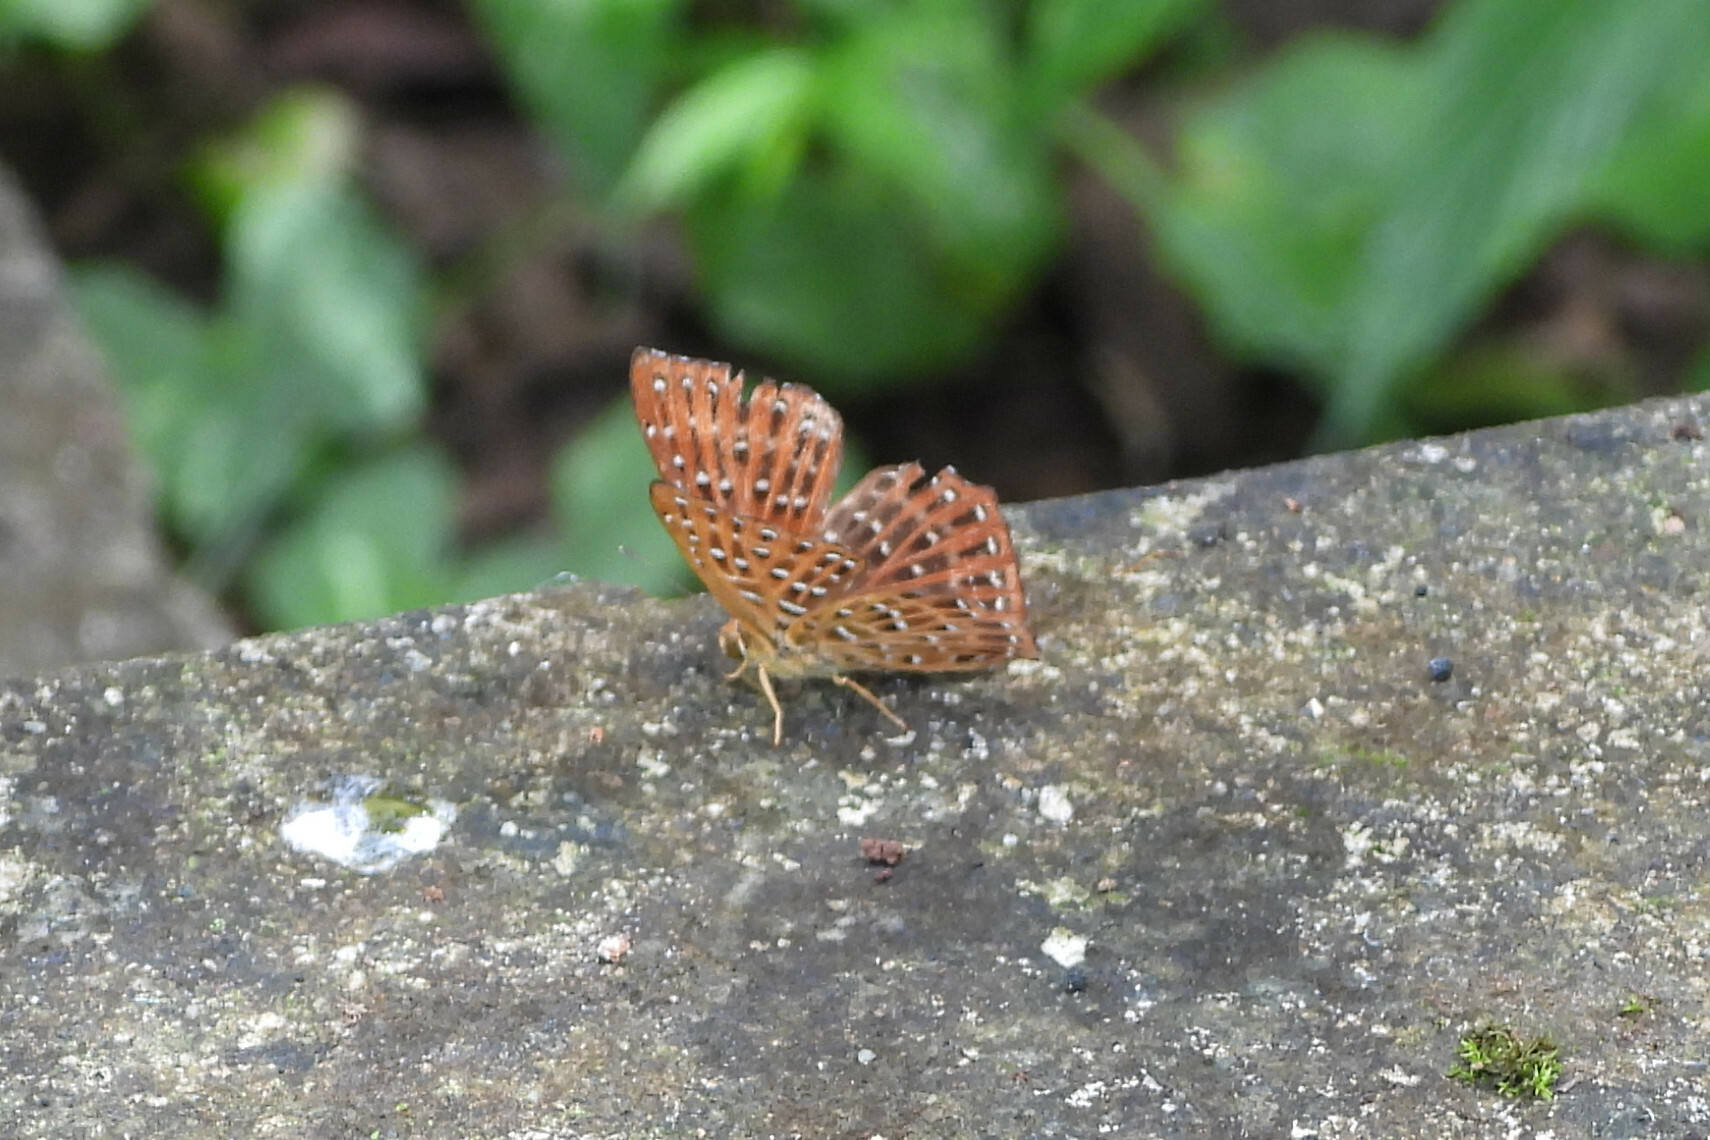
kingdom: Animalia
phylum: Arthropoda
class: Insecta
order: Lepidoptera
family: Riodinidae
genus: Zemeros
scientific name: Zemeros flegyas
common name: Punchinello
